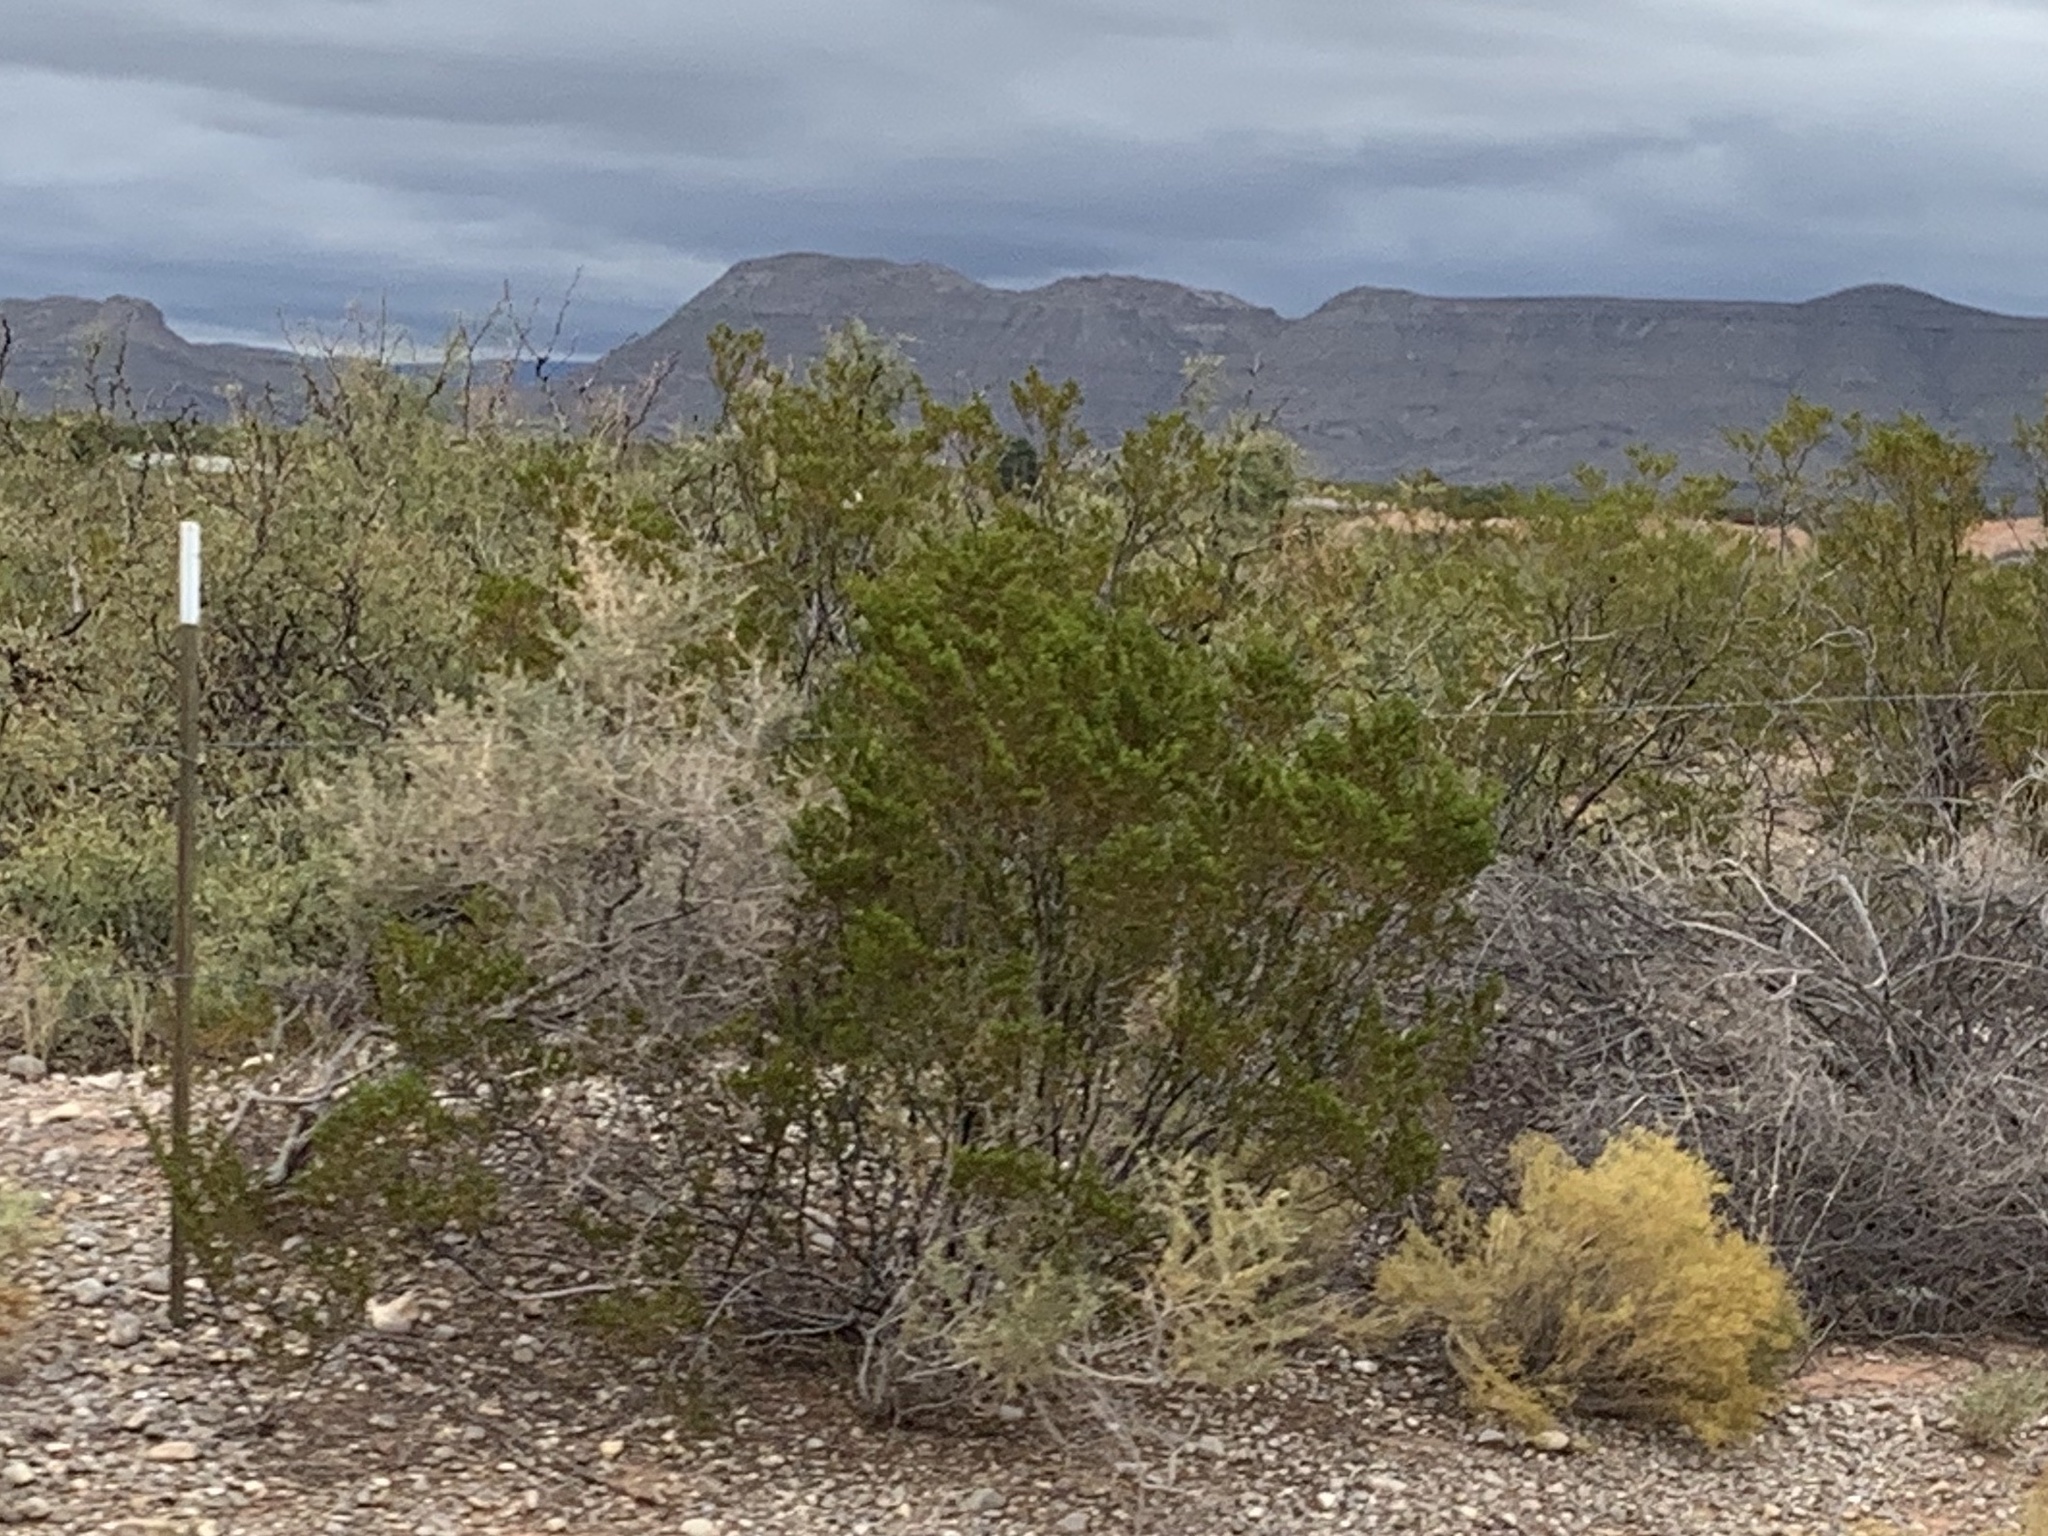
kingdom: Plantae
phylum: Tracheophyta
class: Magnoliopsida
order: Zygophyllales
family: Zygophyllaceae
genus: Larrea
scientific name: Larrea tridentata
